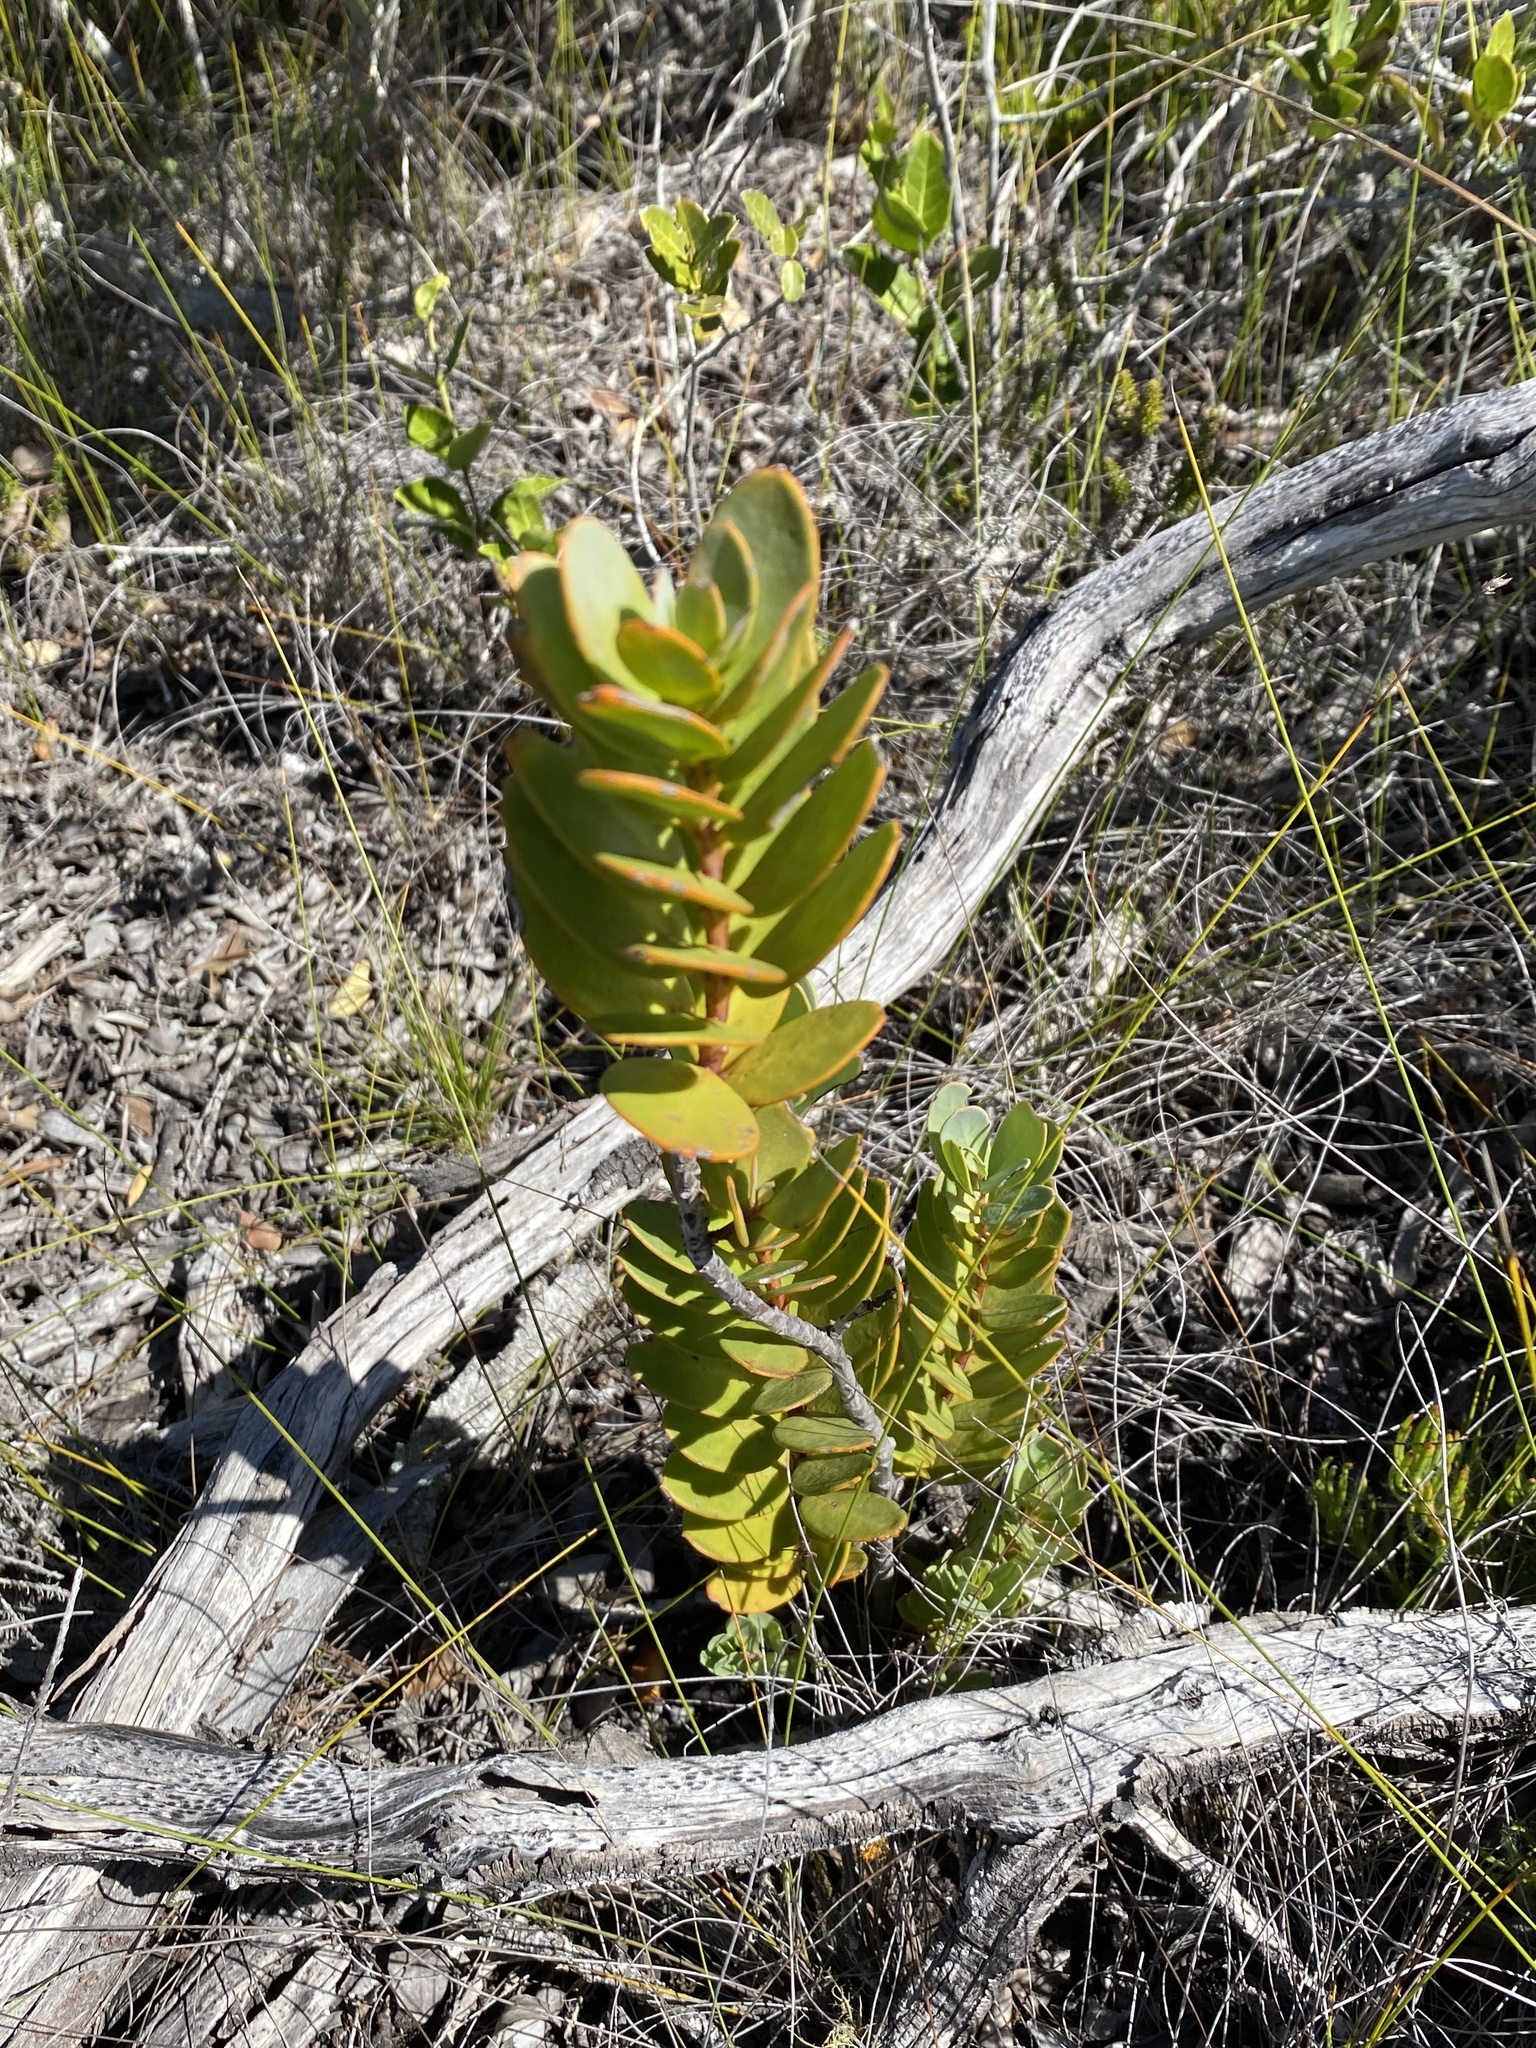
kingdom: Plantae
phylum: Tracheophyta
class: Magnoliopsida
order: Santalales
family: Santalaceae
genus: Osyris
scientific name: Osyris compressa
